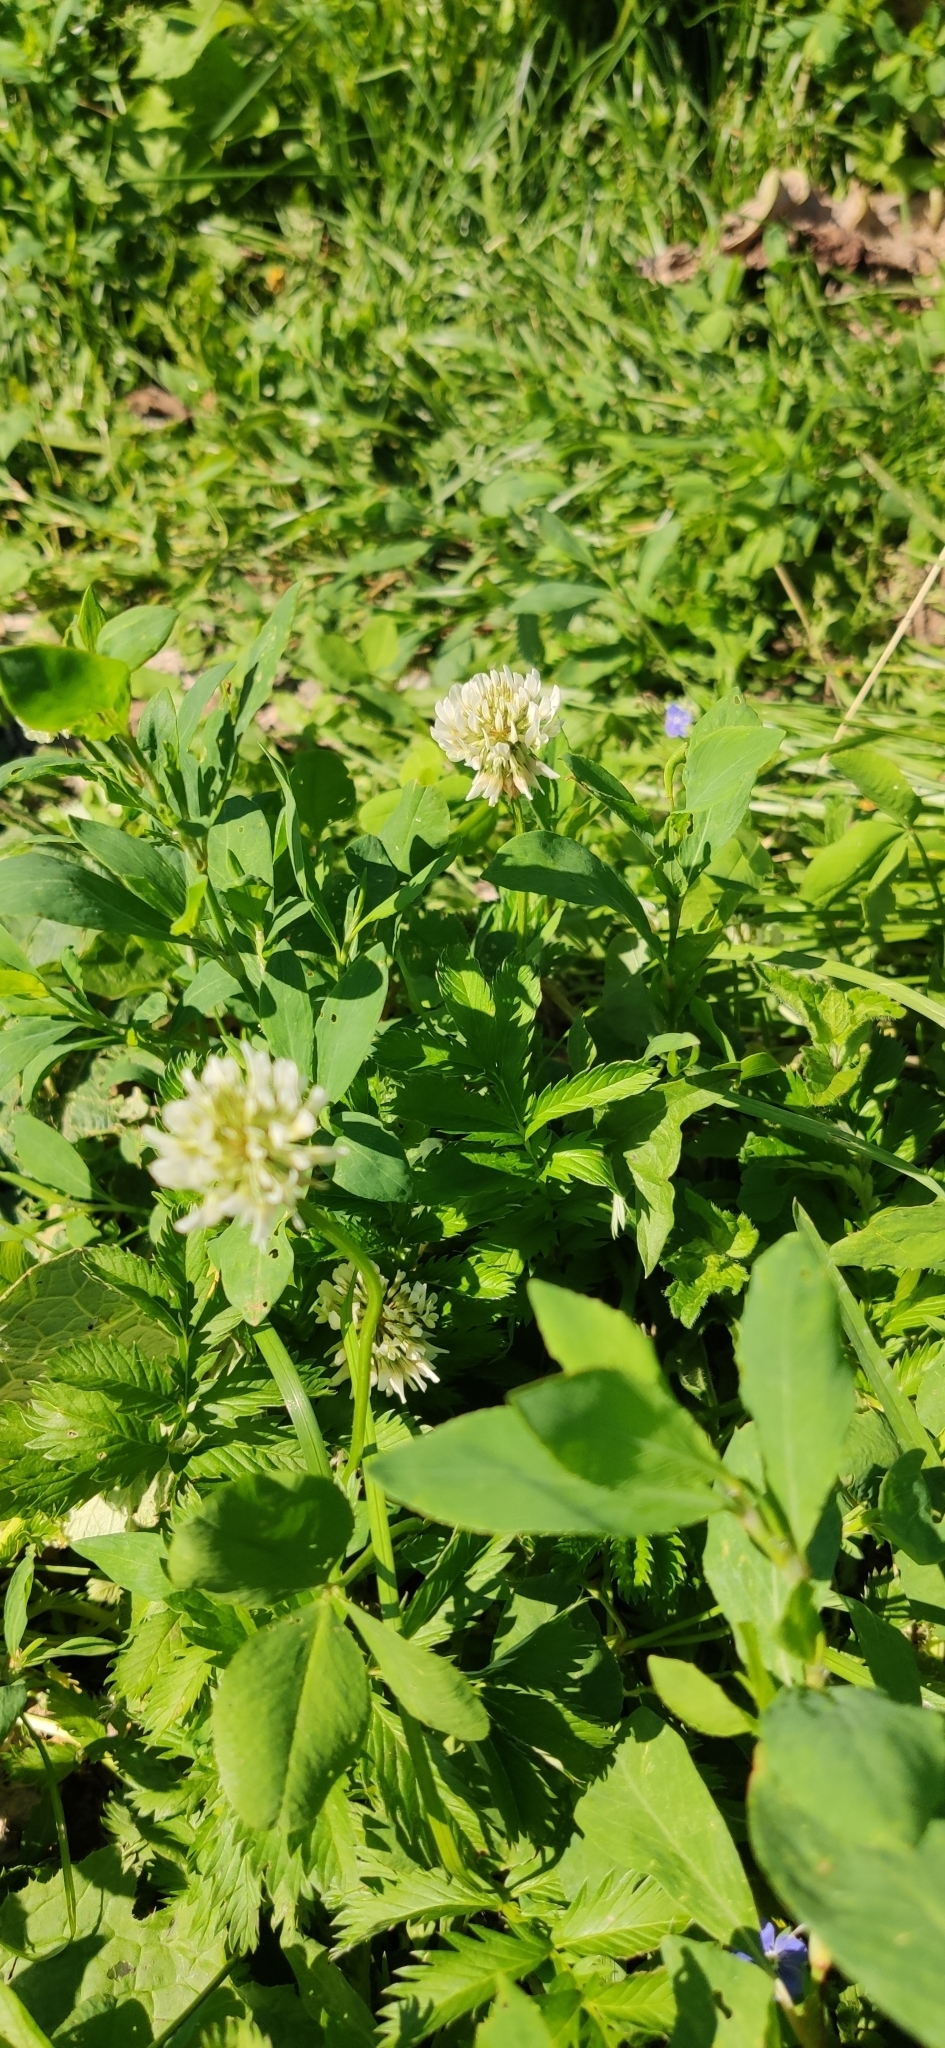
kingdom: Plantae
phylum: Tracheophyta
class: Magnoliopsida
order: Fabales
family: Fabaceae
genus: Trifolium
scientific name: Trifolium repens
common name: White clover
